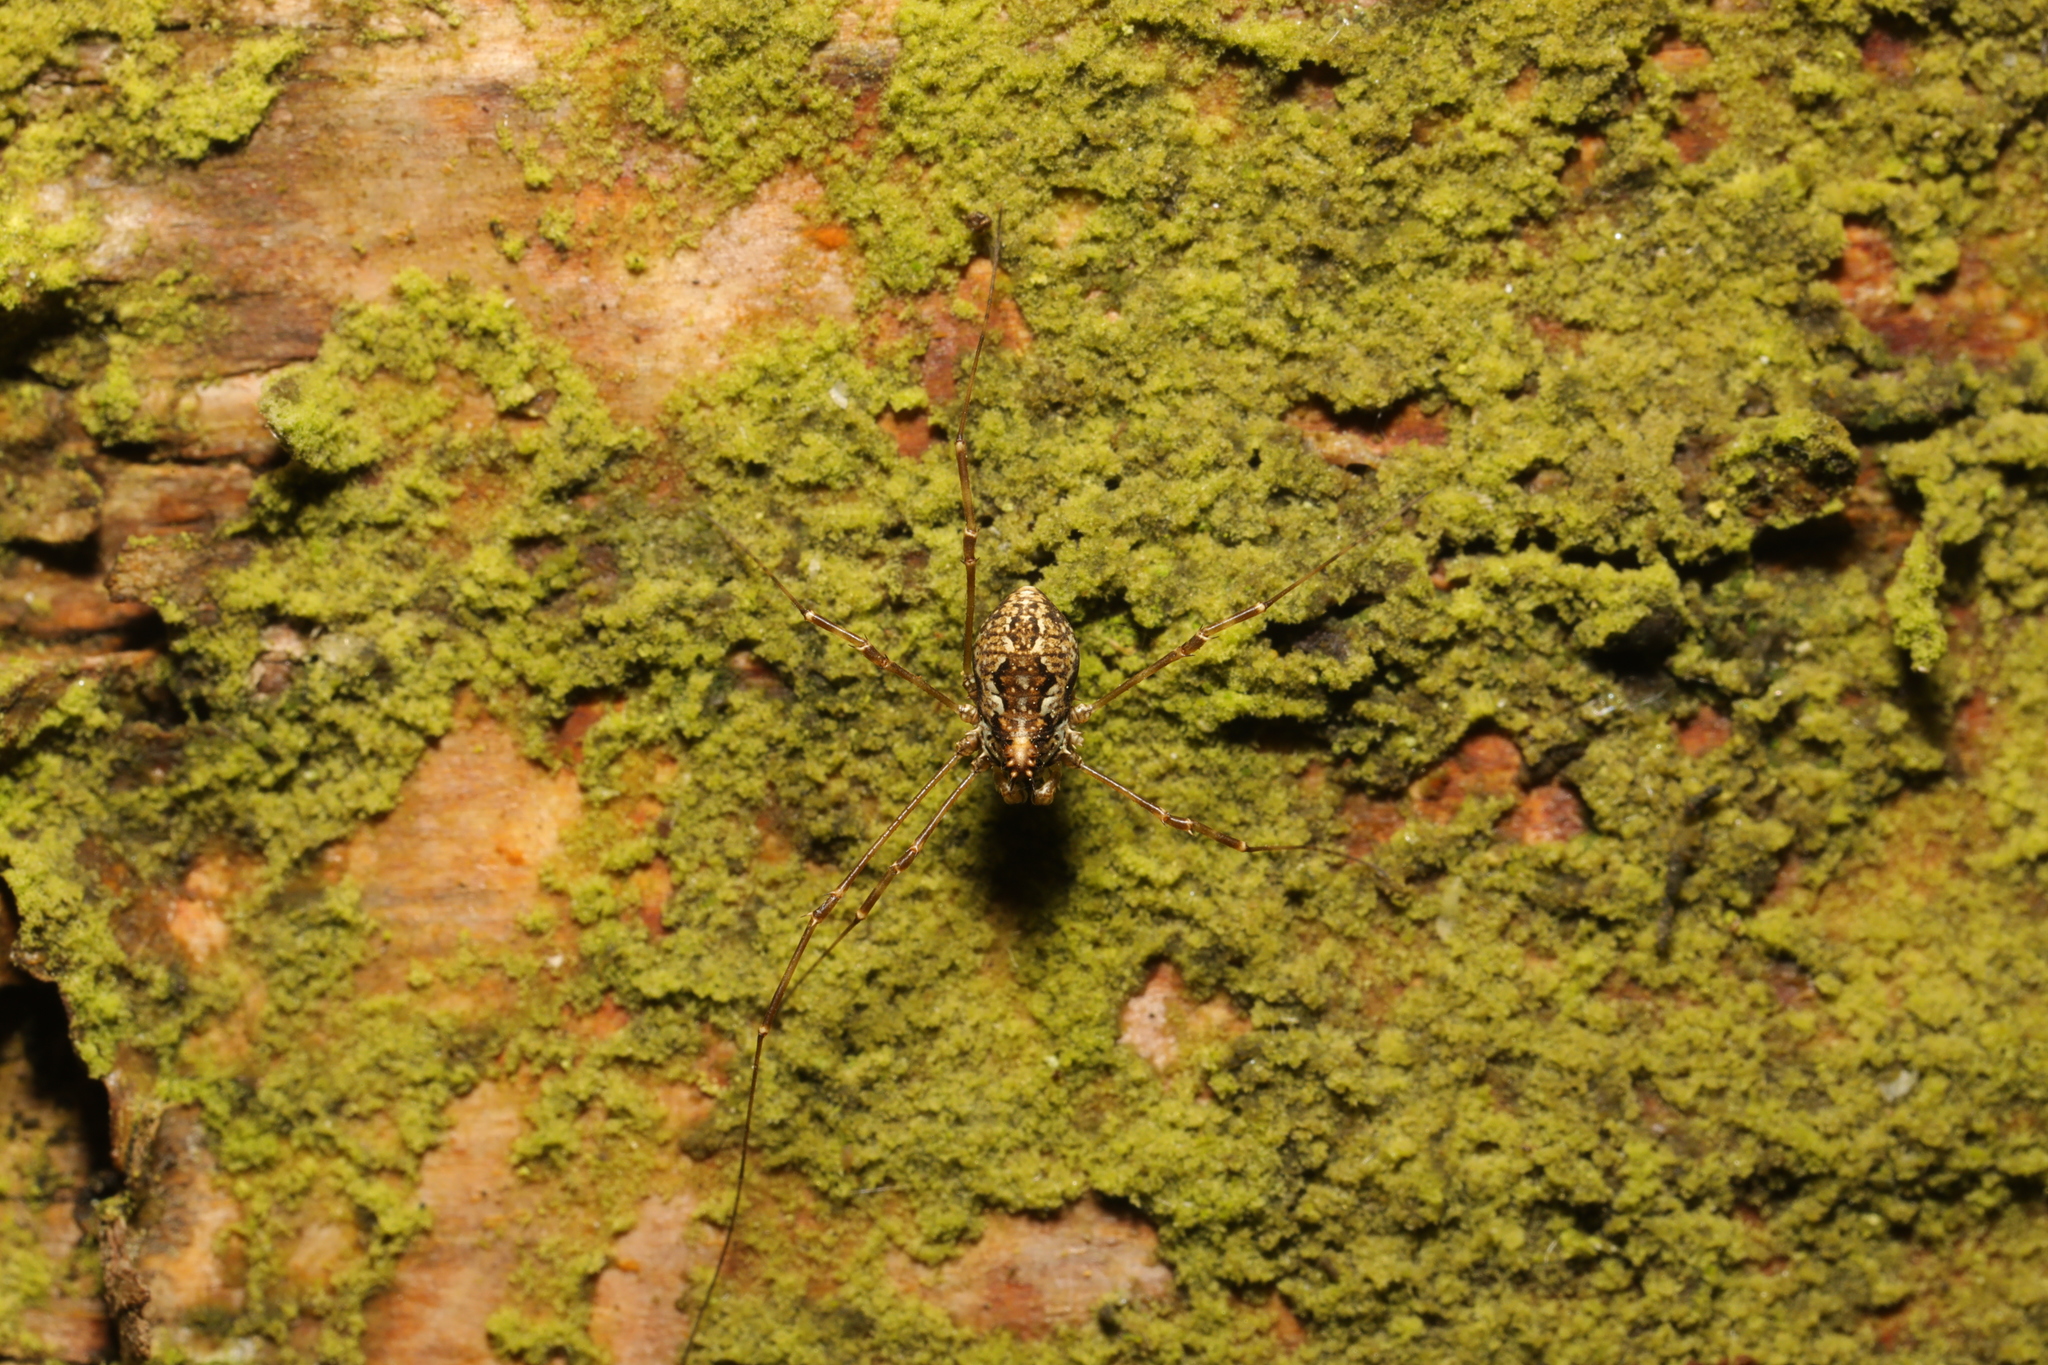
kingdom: Animalia
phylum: Arthropoda
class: Arachnida
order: Opiliones
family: Phalangiidae
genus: Megabunus
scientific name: Megabunus diadema
